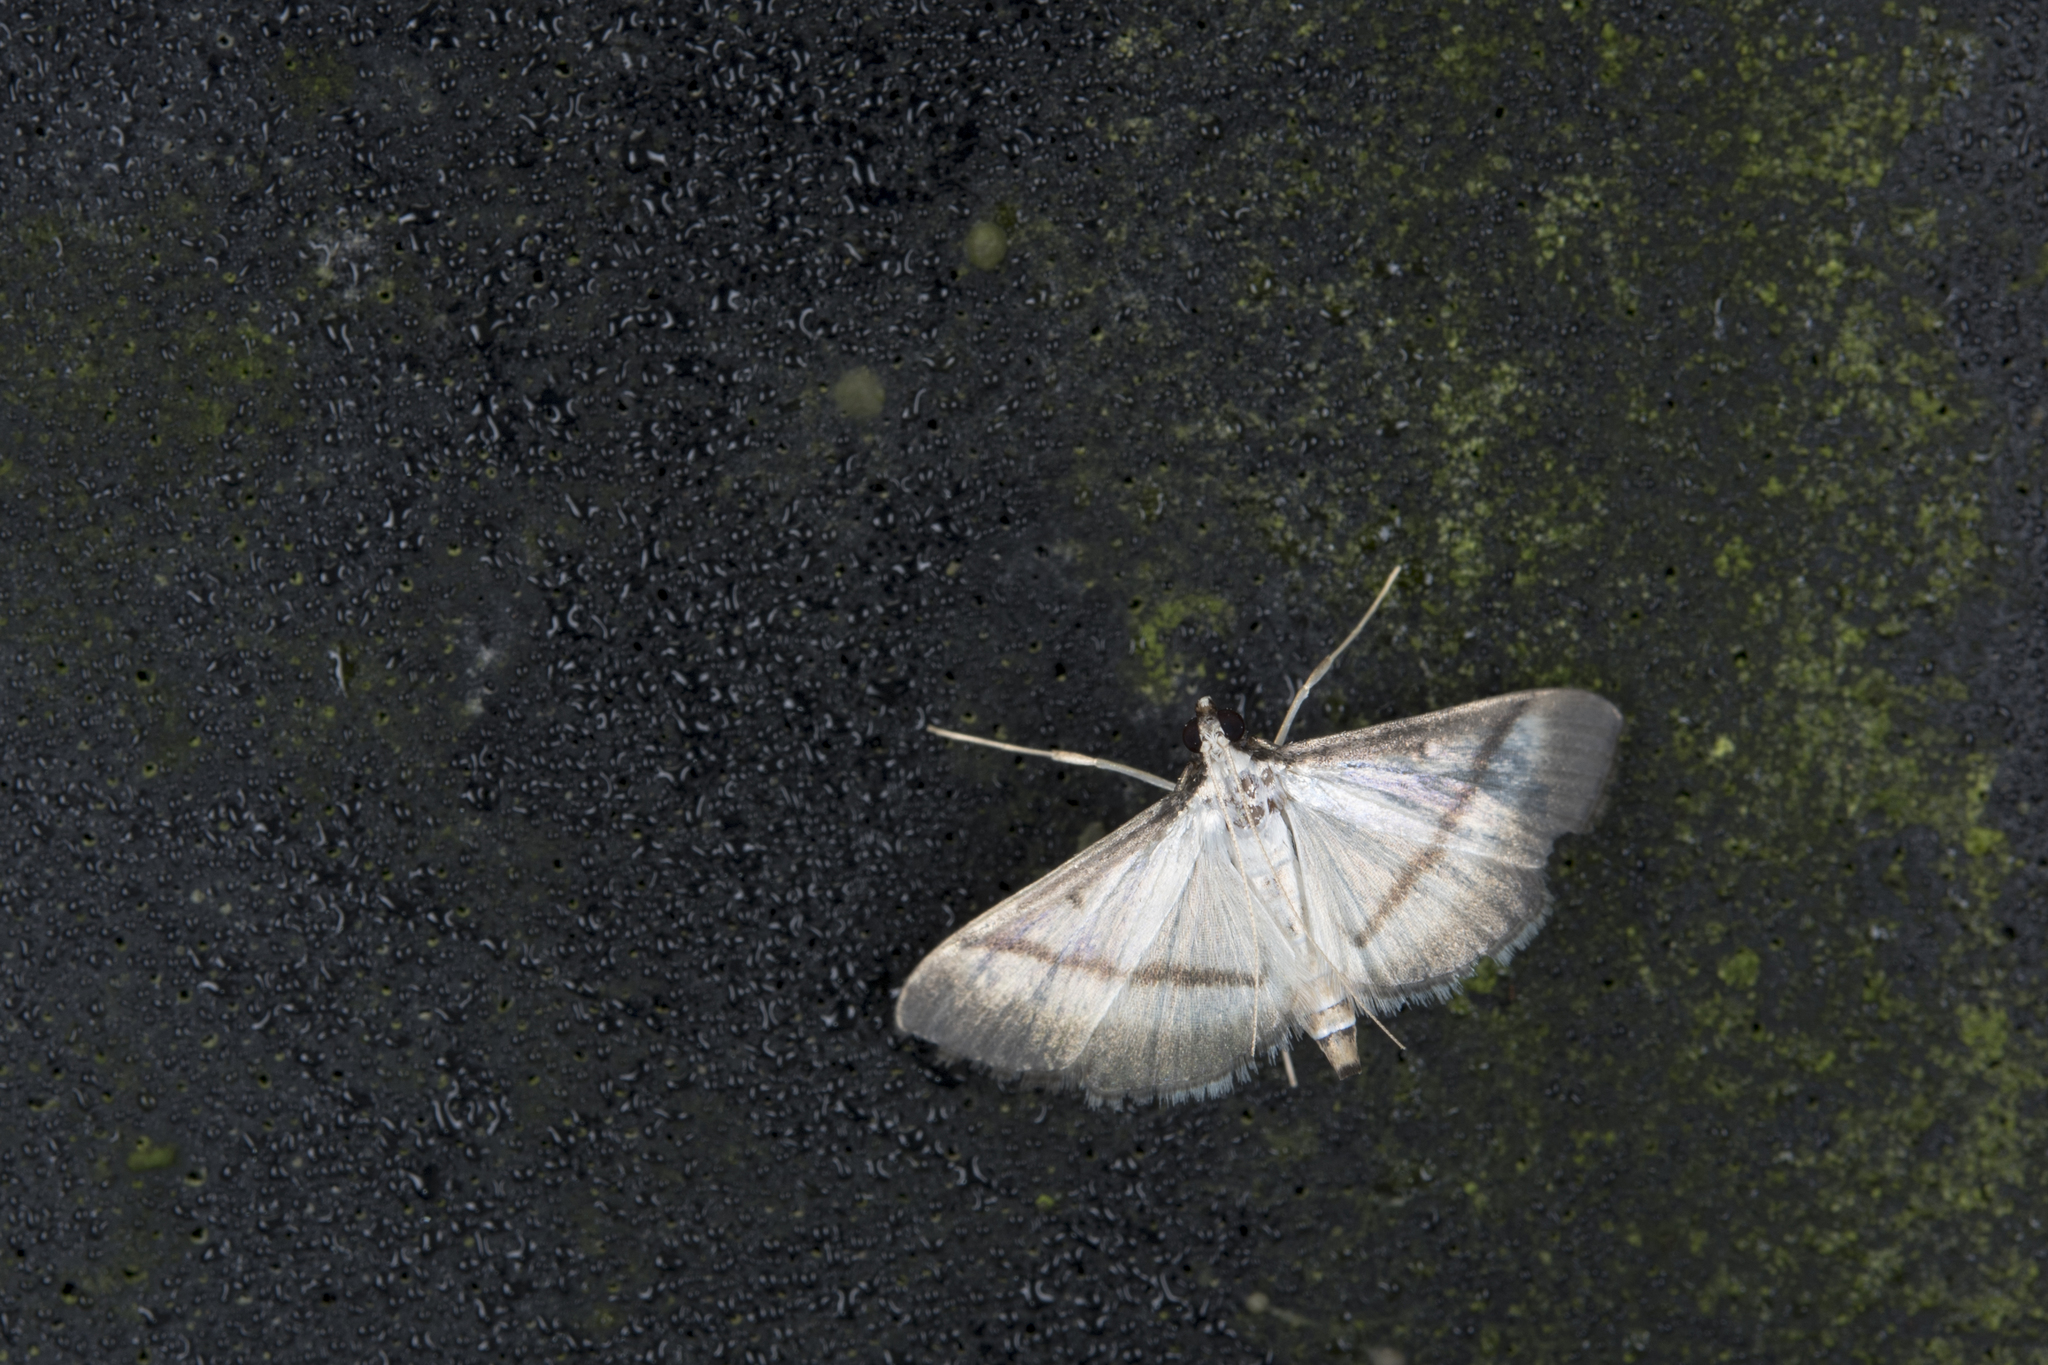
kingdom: Animalia
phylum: Arthropoda
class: Insecta
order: Lepidoptera
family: Crambidae
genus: Bradina
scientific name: Bradina diagonalis
